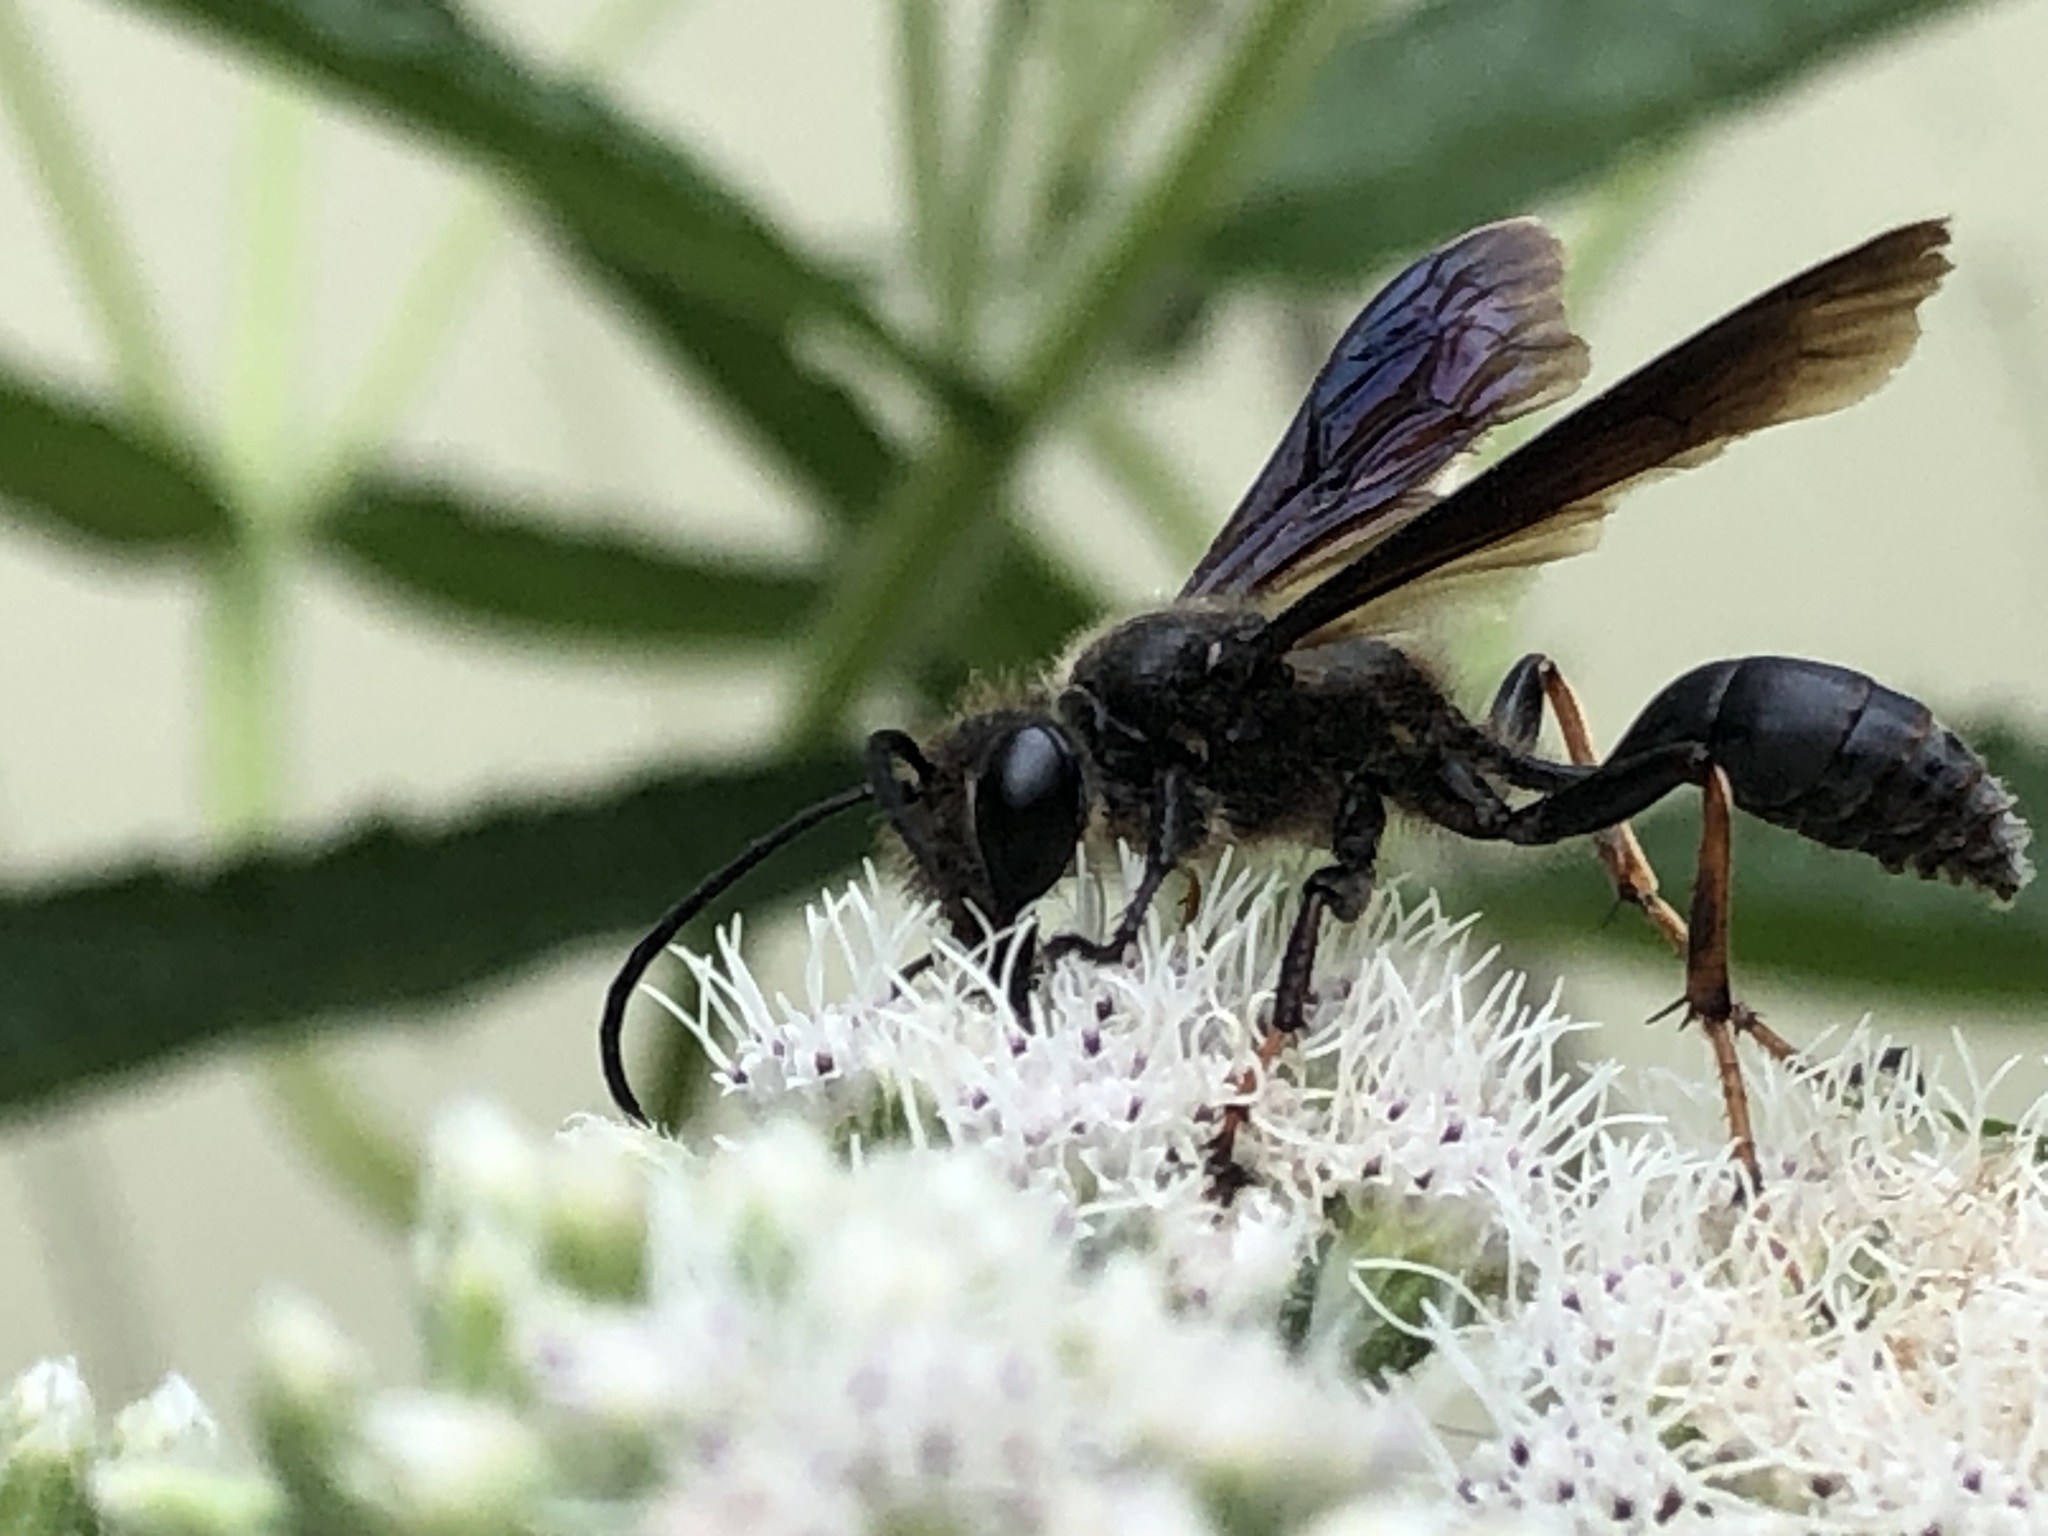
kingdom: Animalia
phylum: Arthropoda
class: Insecta
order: Hymenoptera
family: Sphecidae
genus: Isodontia
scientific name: Isodontia auripes
